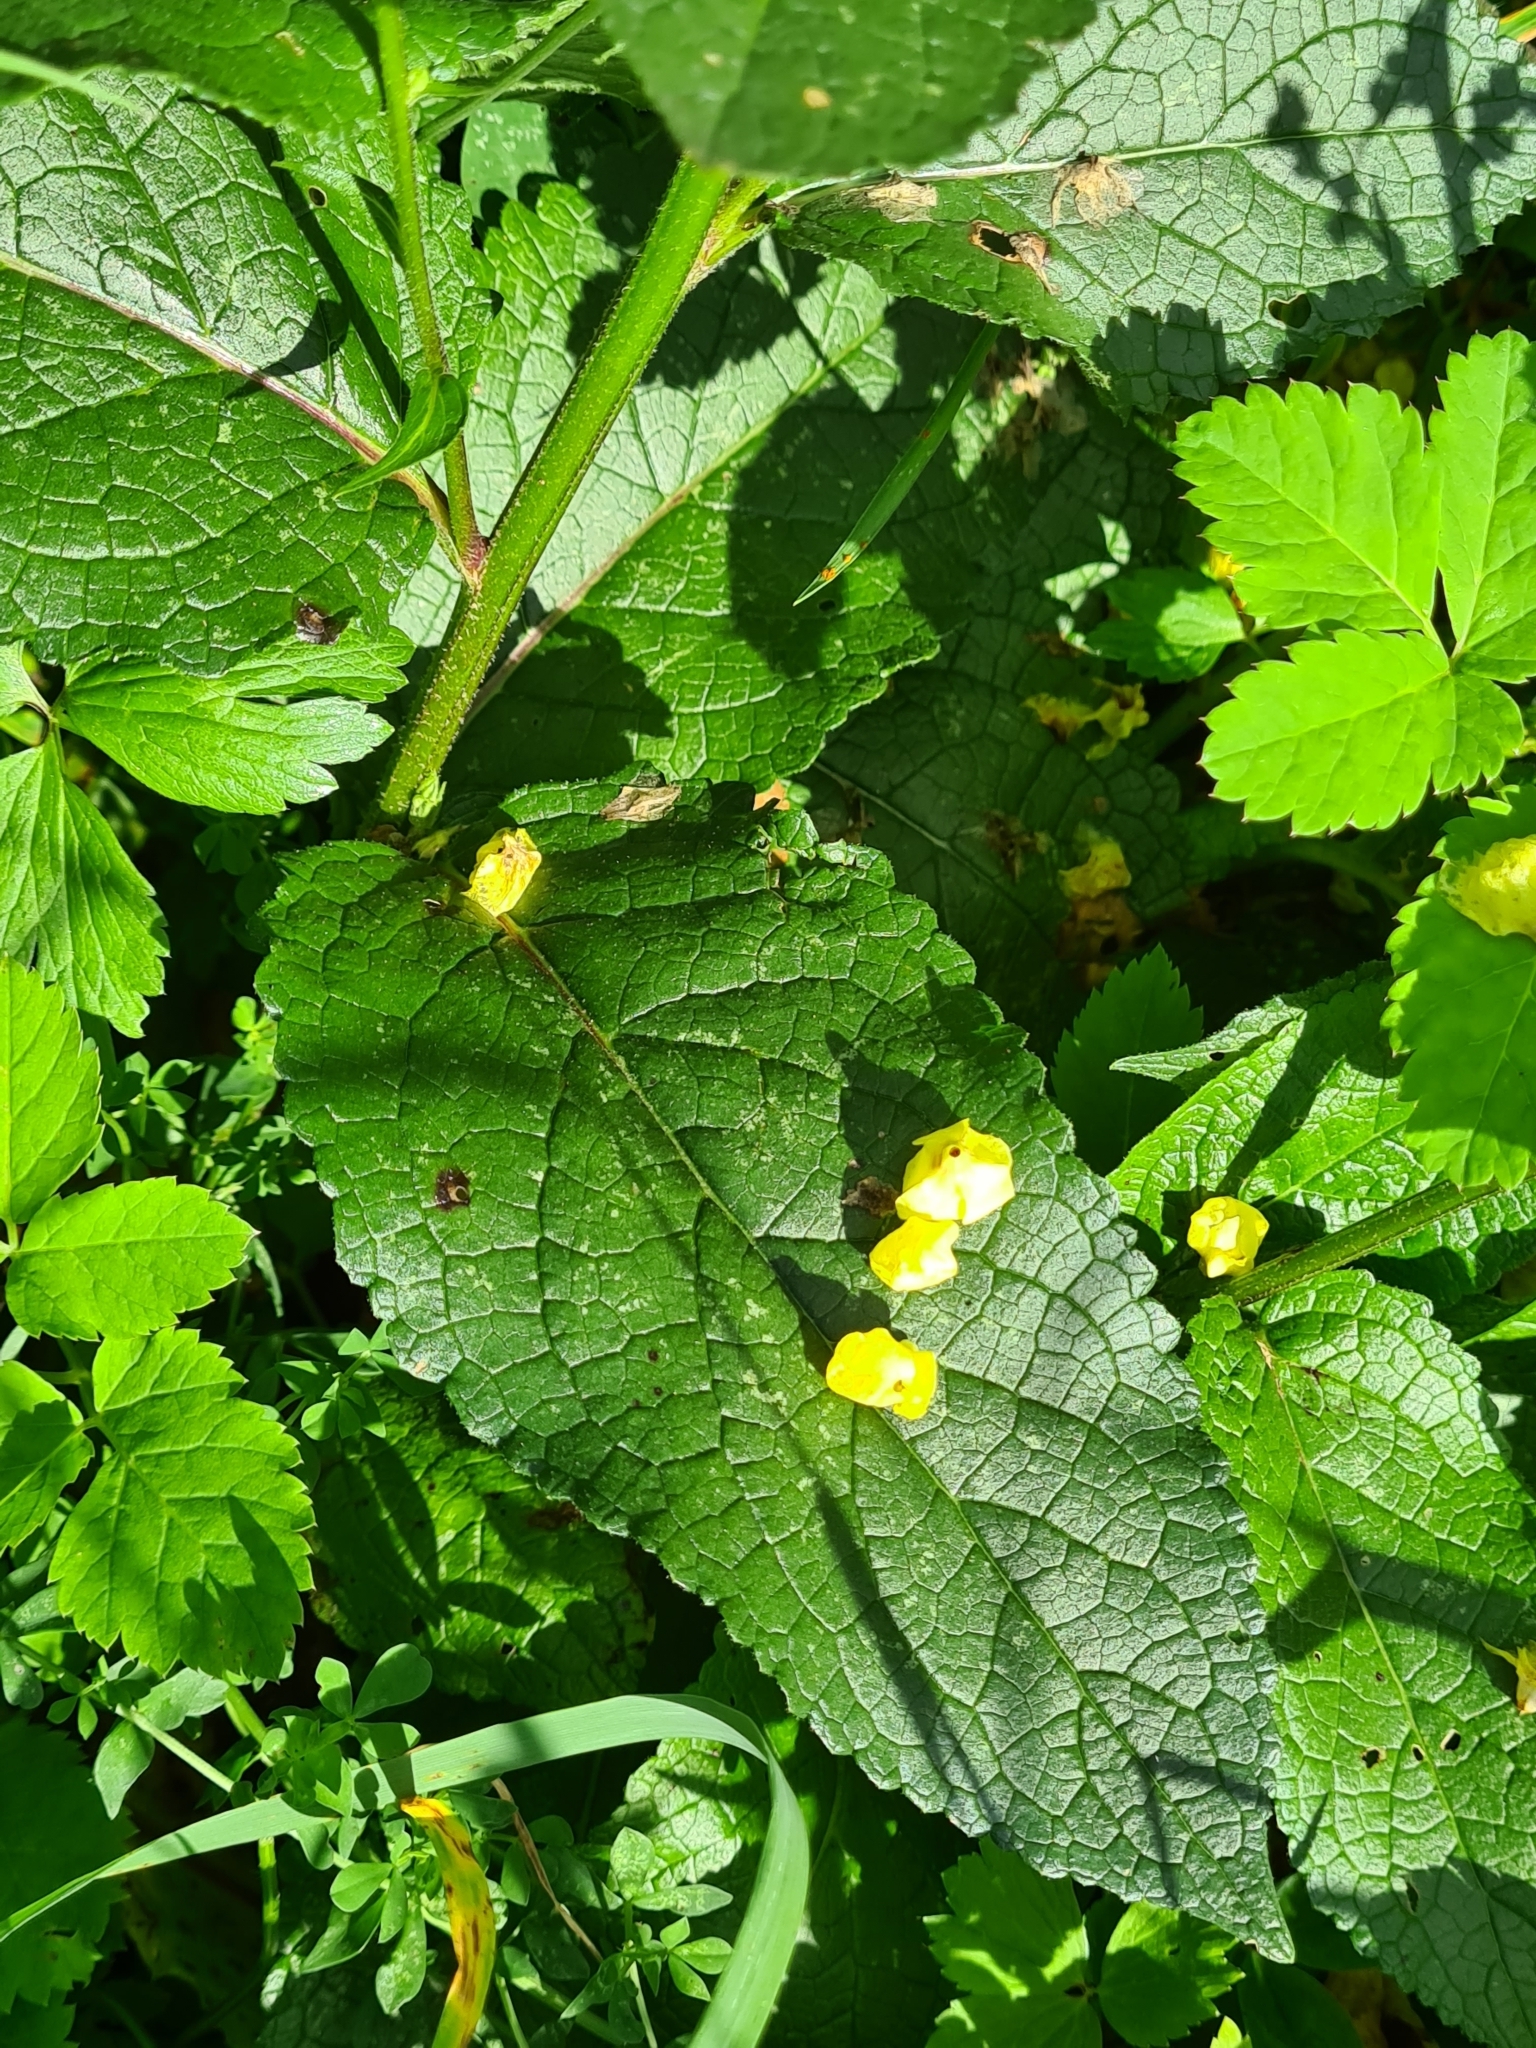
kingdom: Plantae
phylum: Tracheophyta
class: Magnoliopsida
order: Lamiales
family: Scrophulariaceae
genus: Verbascum
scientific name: Verbascum nigrum
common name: Dark mullein
